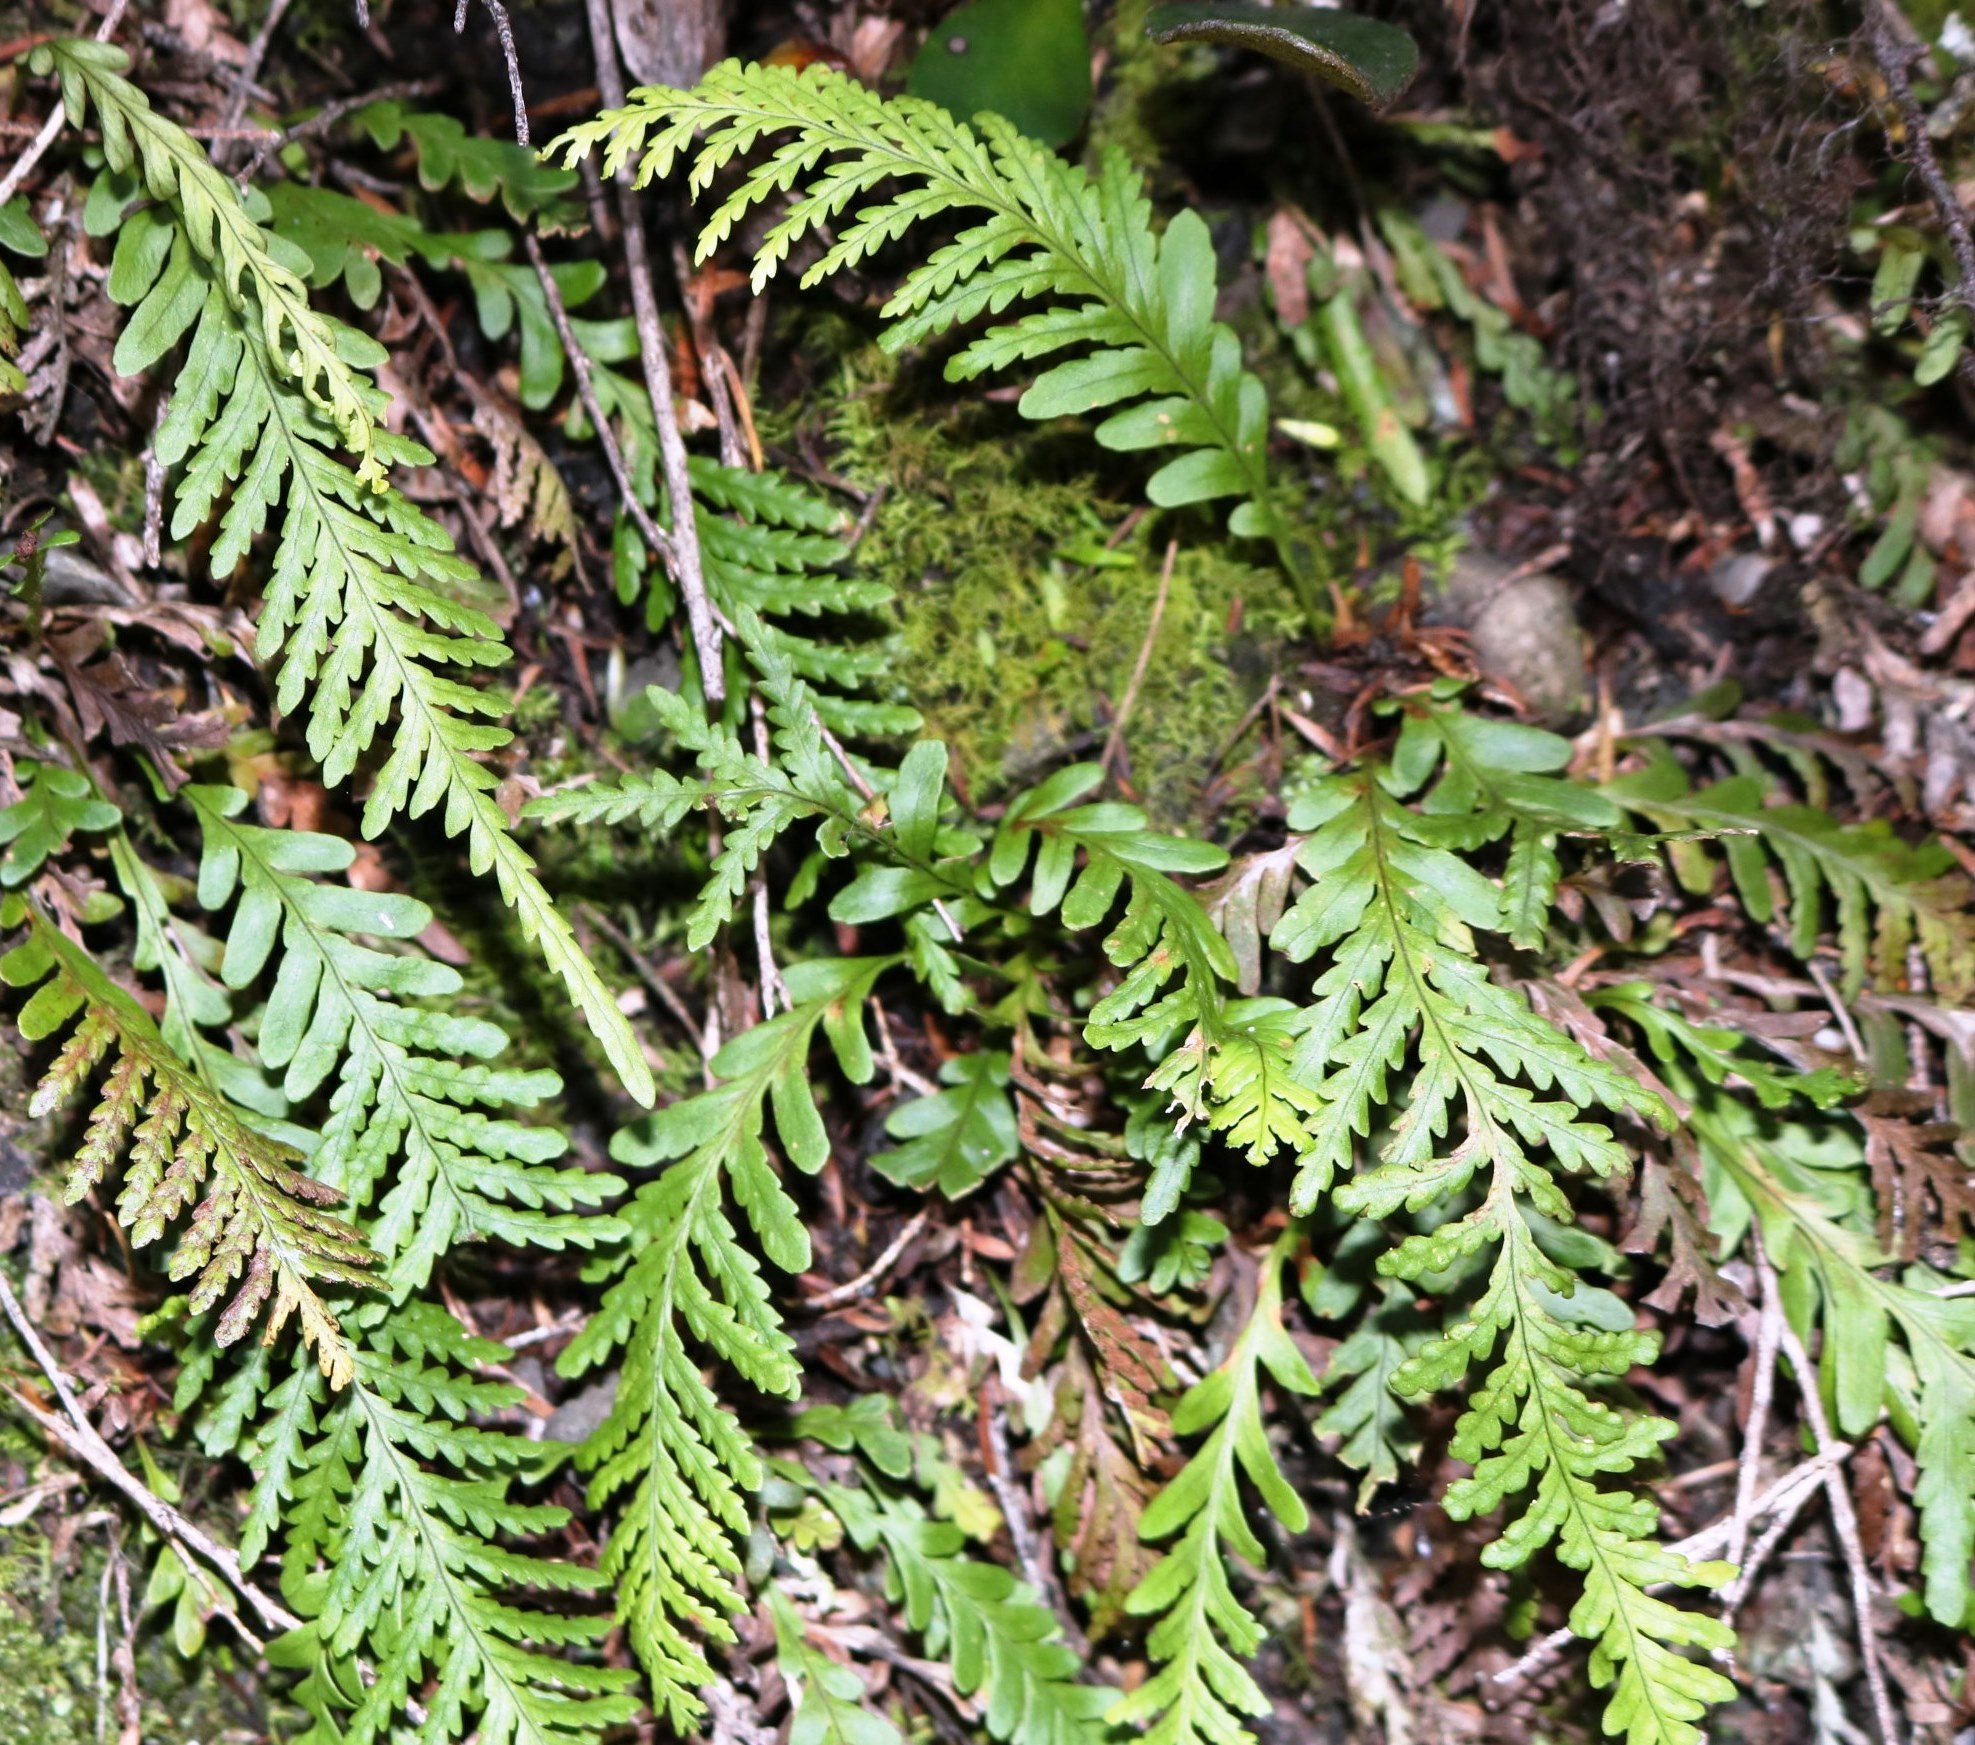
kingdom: Plantae
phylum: Tracheophyta
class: Polypodiopsida
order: Polypodiales
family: Polypodiaceae
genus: Notogrammitis
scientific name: Notogrammitis heterophylla
